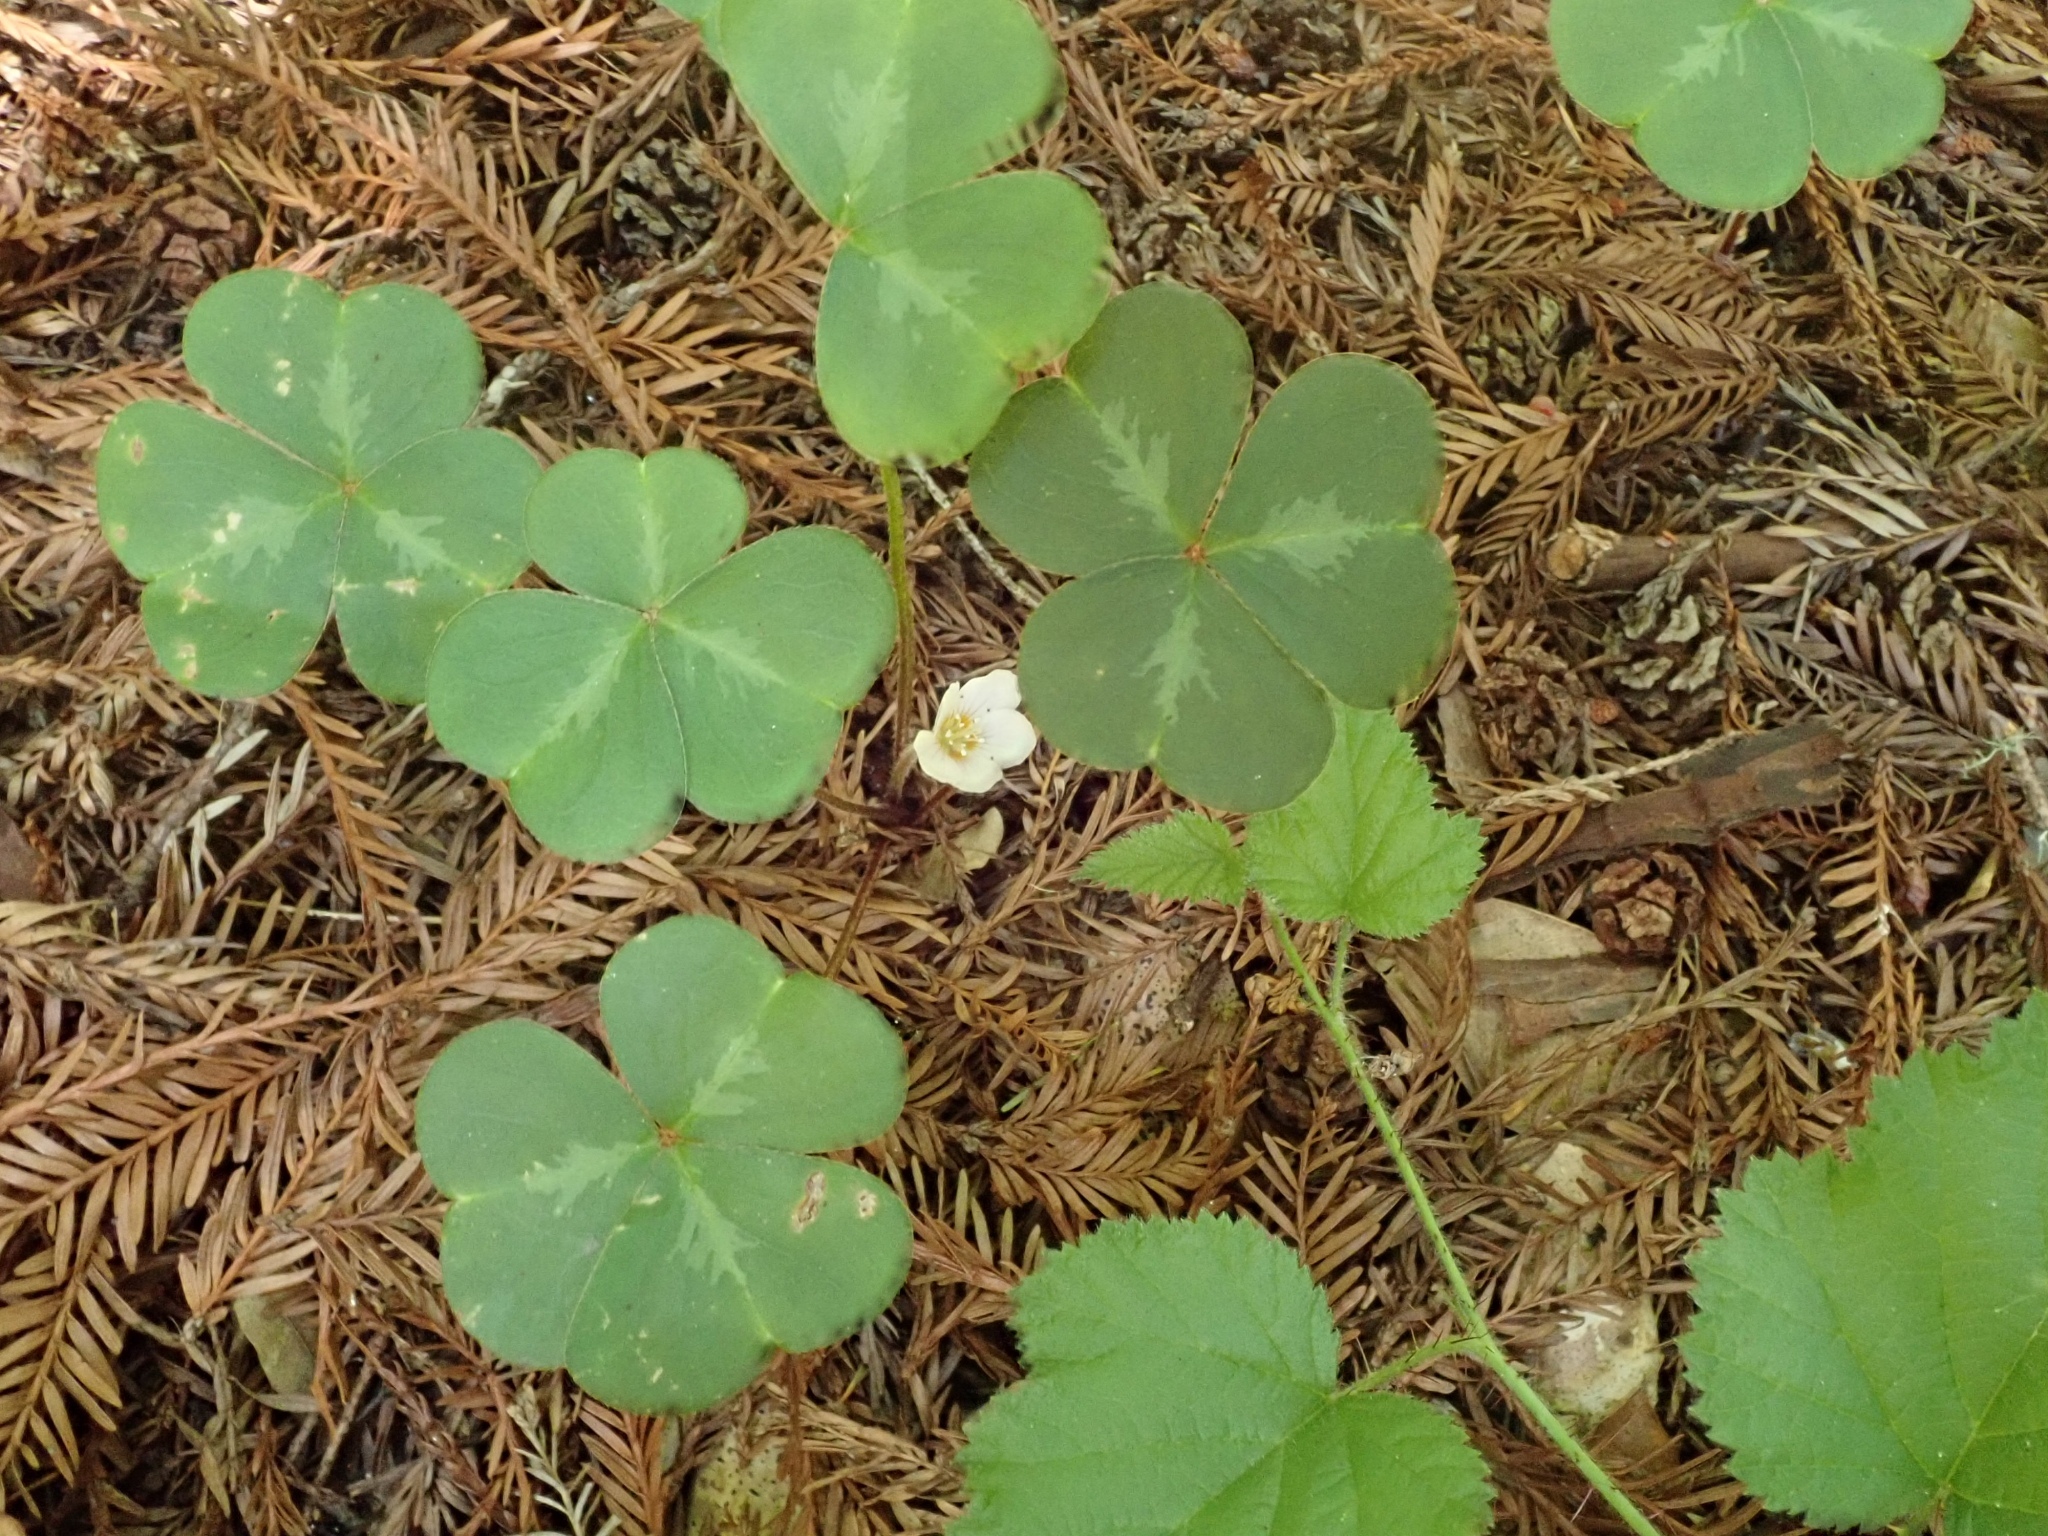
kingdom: Plantae
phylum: Tracheophyta
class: Magnoliopsida
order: Oxalidales
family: Oxalidaceae
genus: Oxalis
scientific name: Oxalis oregana
